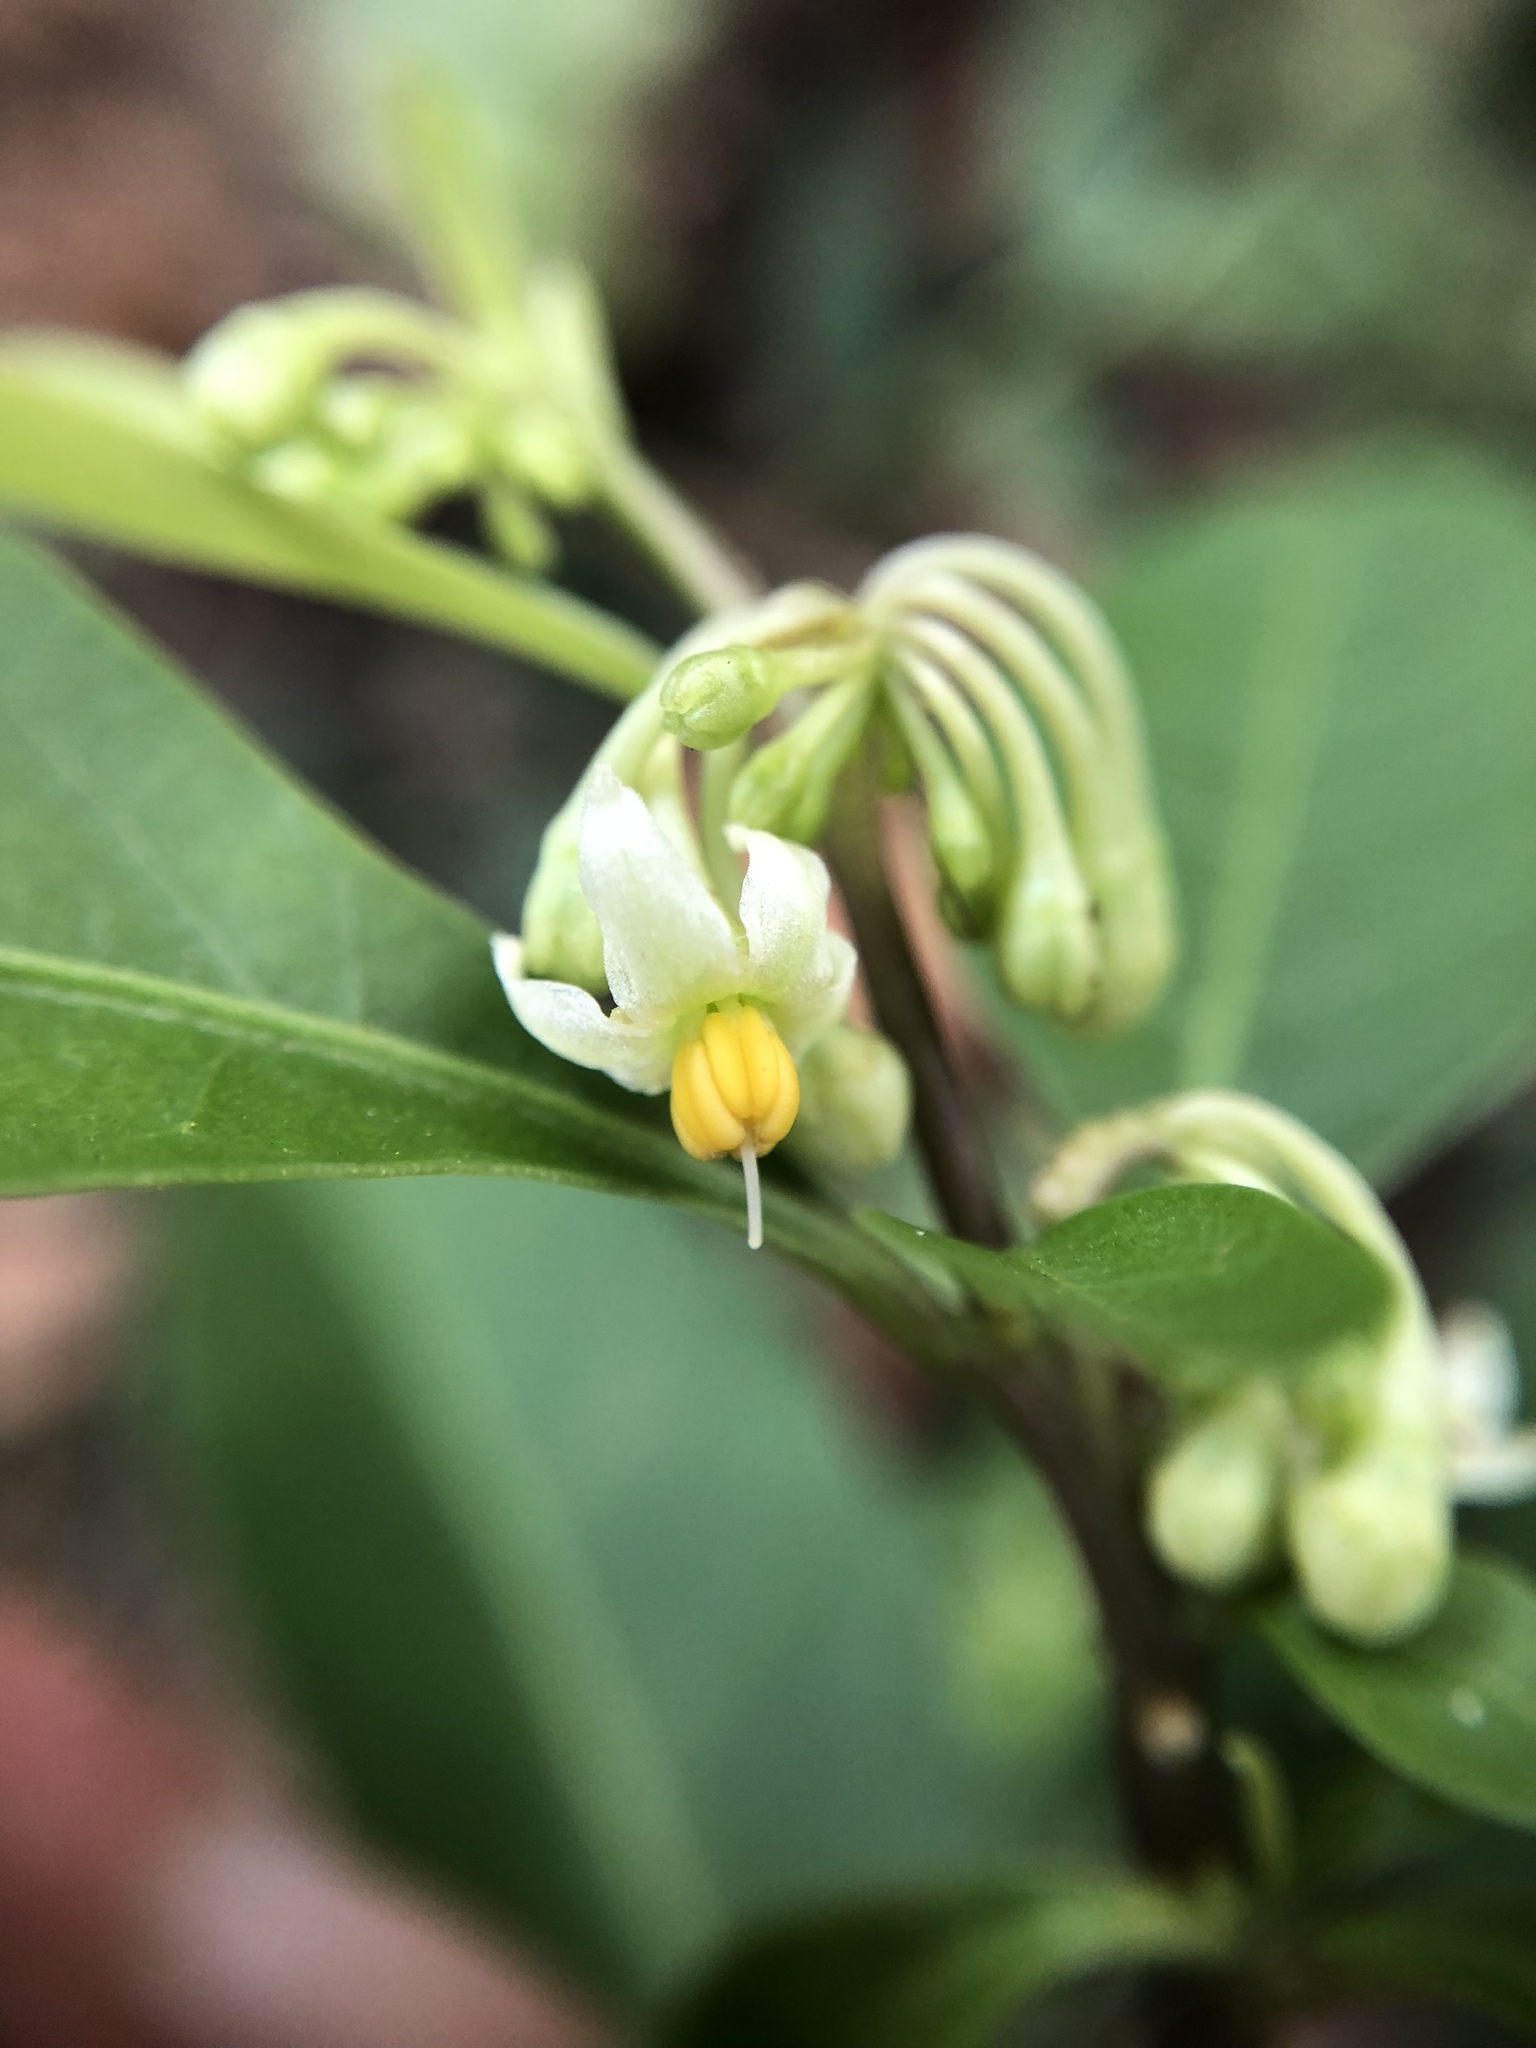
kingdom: Plantae
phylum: Tracheophyta
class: Magnoliopsida
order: Solanales
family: Solanaceae
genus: Solanum
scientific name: Solanum diphyllum
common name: Twoleaf nightshade
